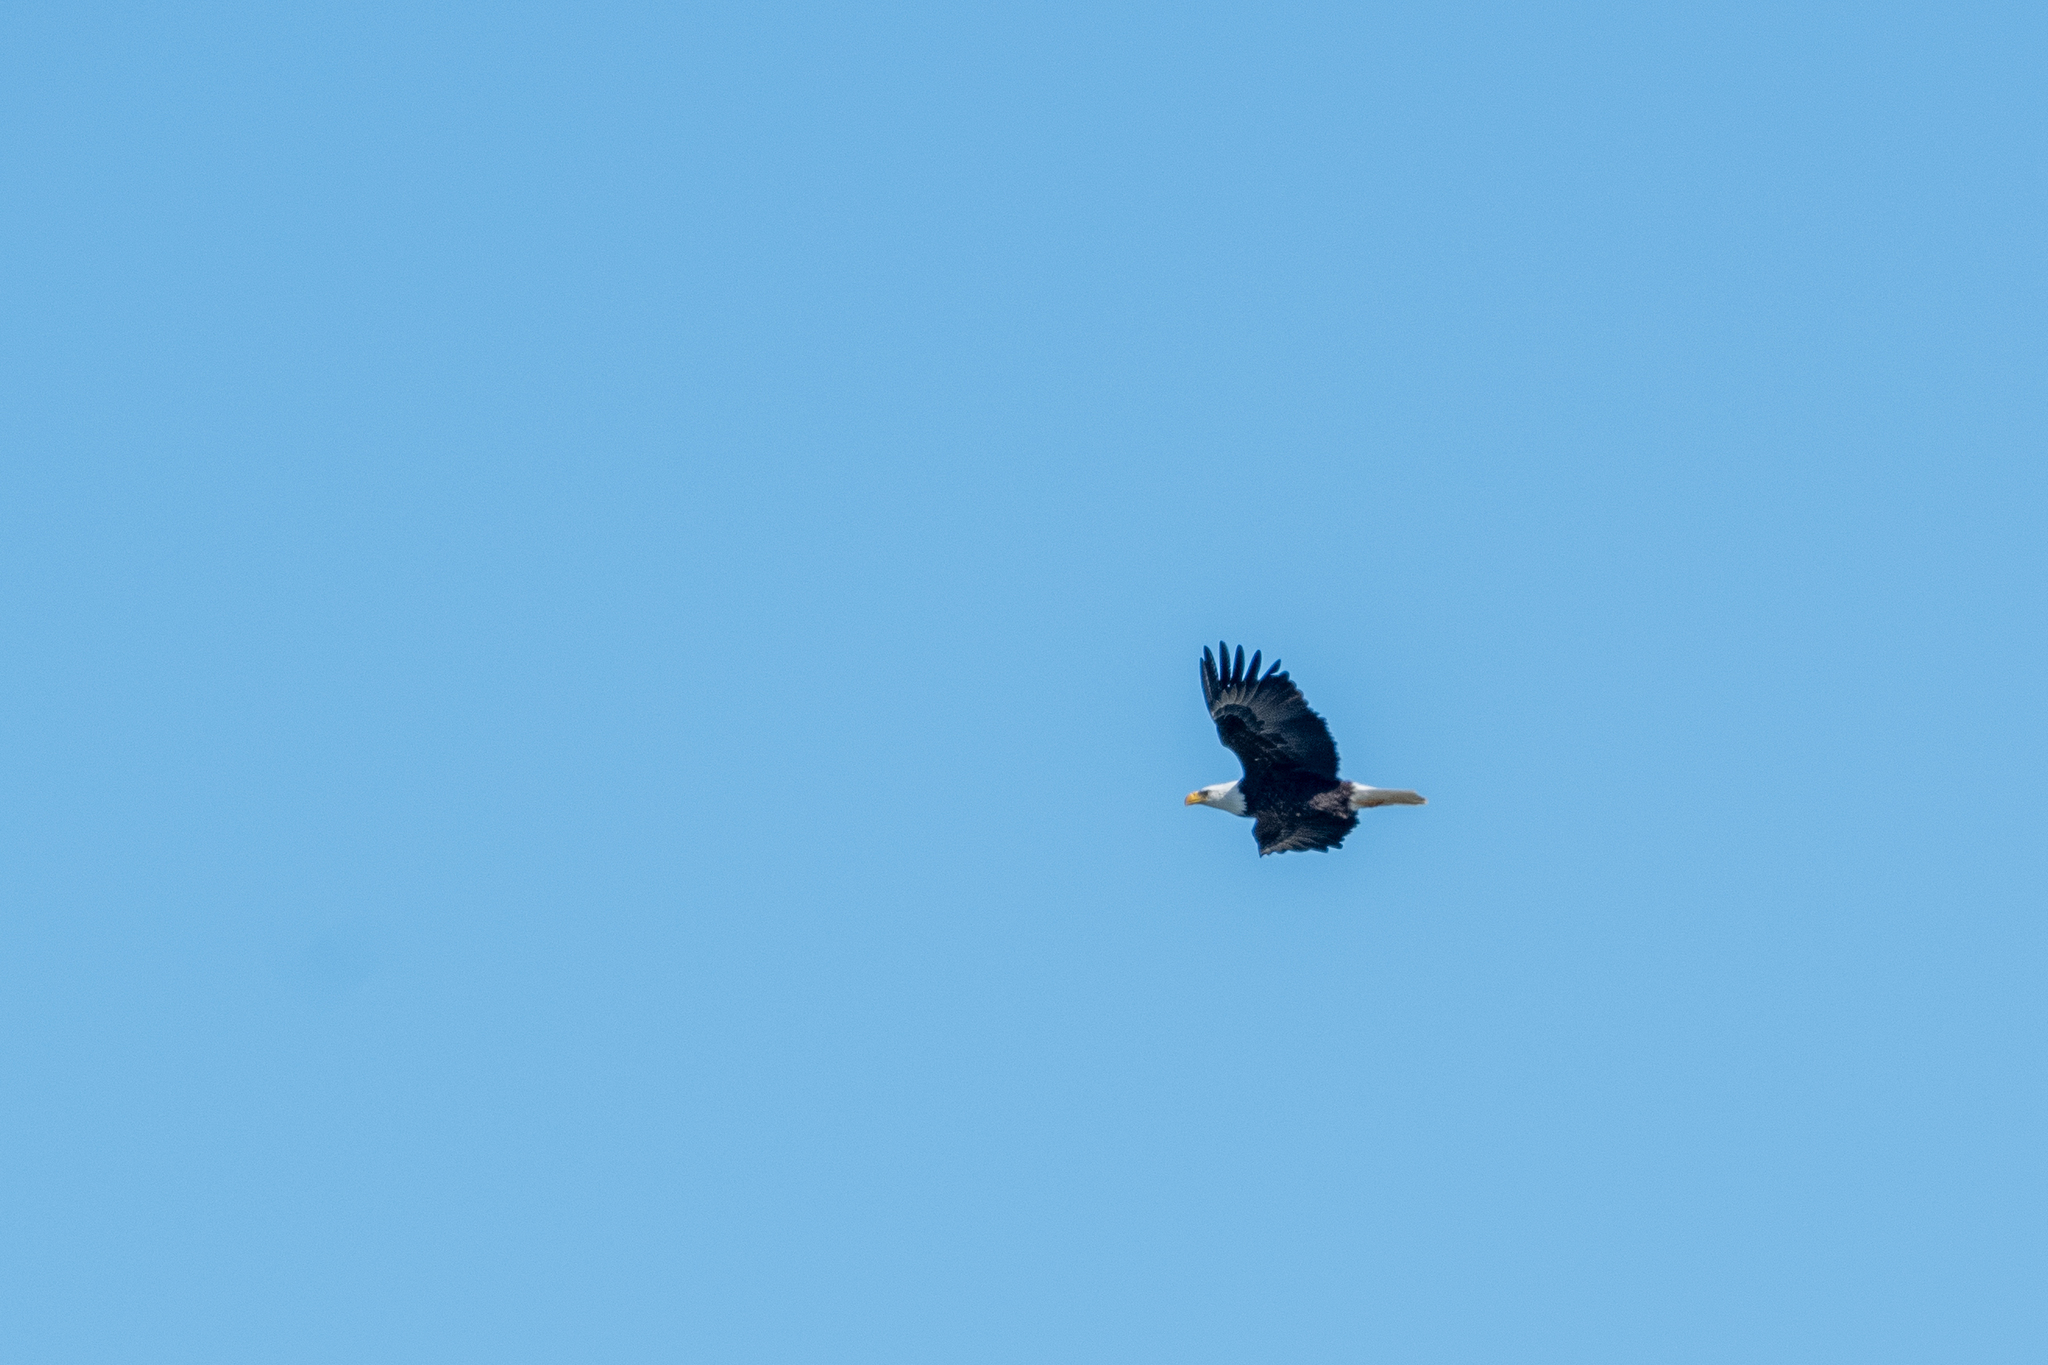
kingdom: Animalia
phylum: Chordata
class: Aves
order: Accipitriformes
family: Accipitridae
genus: Haliaeetus
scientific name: Haliaeetus leucocephalus
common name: Bald eagle
